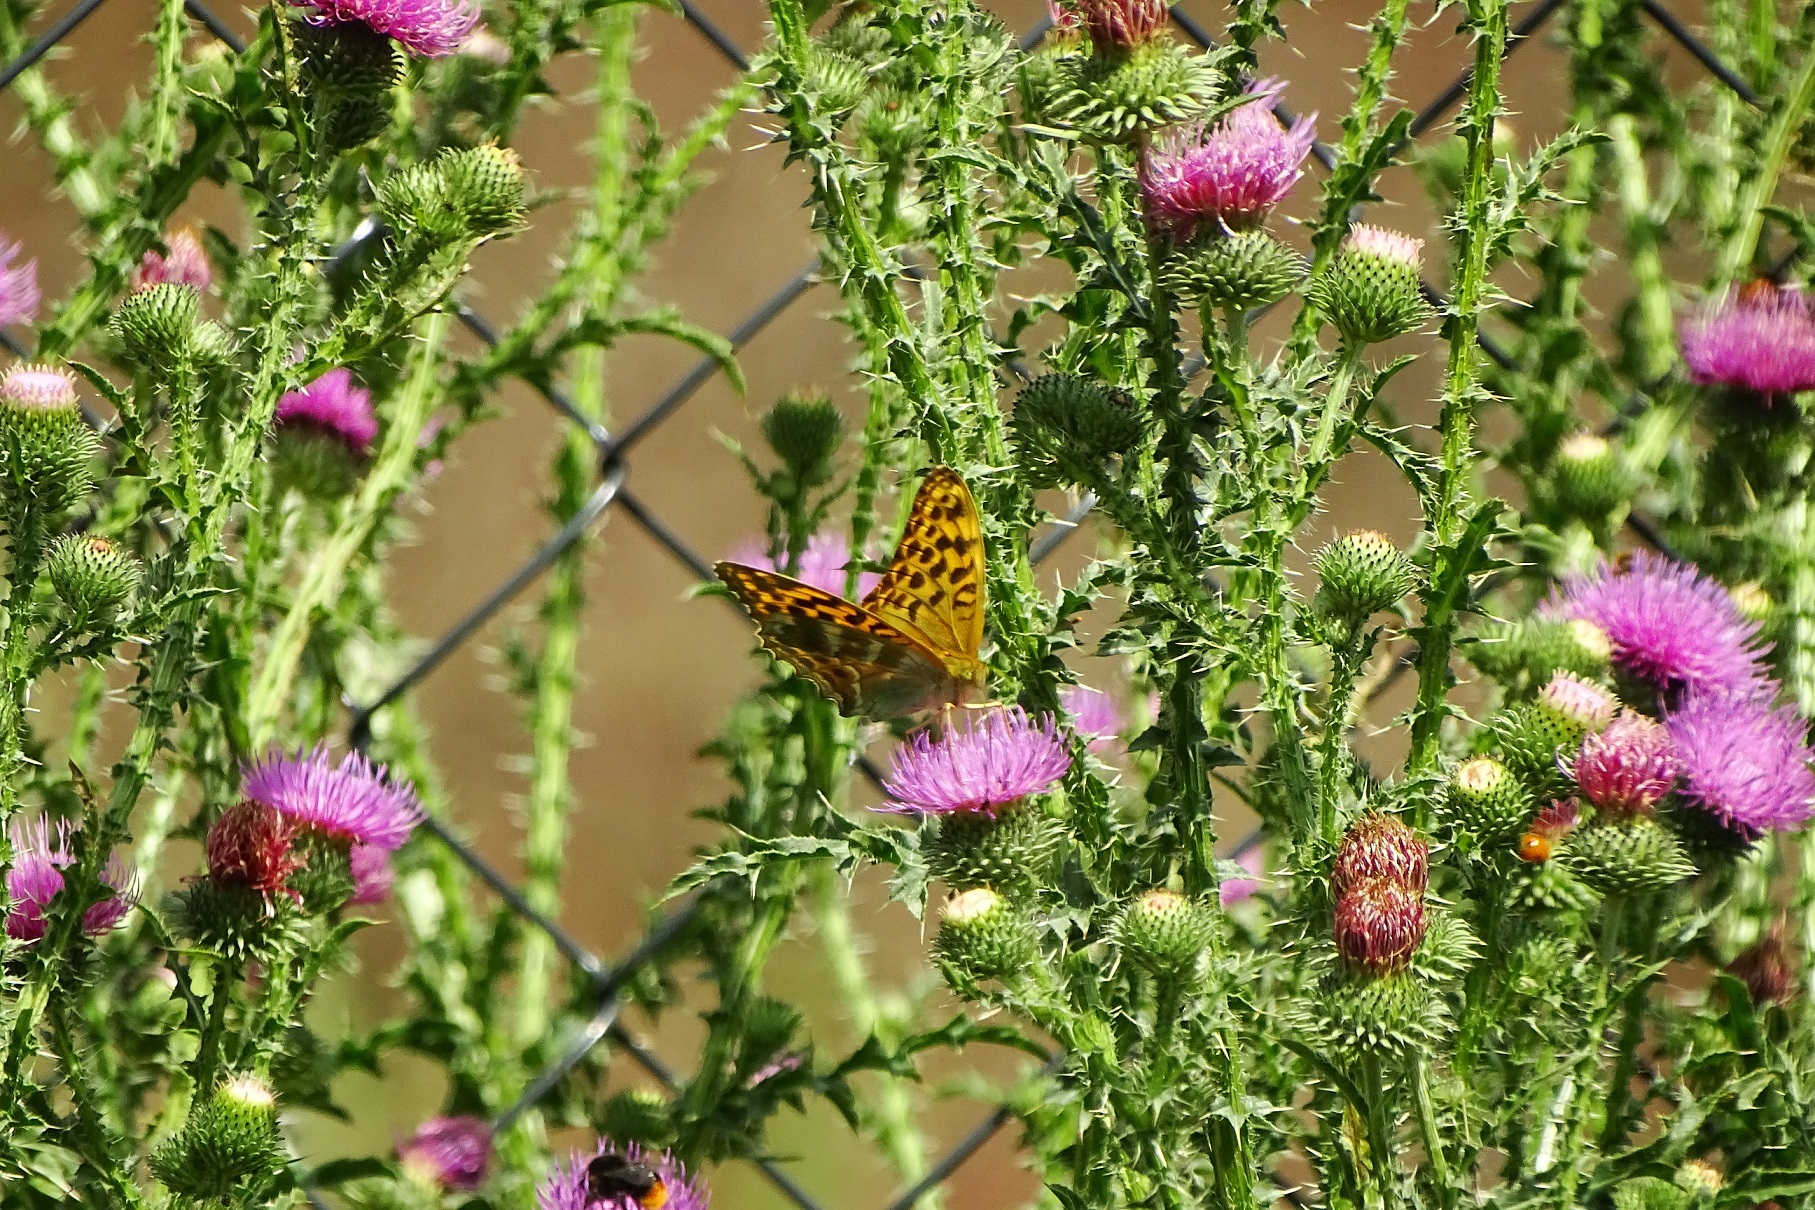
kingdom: Animalia
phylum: Arthropoda
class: Insecta
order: Lepidoptera
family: Nymphalidae
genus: Argynnis
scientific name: Argynnis paphia
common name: Silver-washed fritillary
